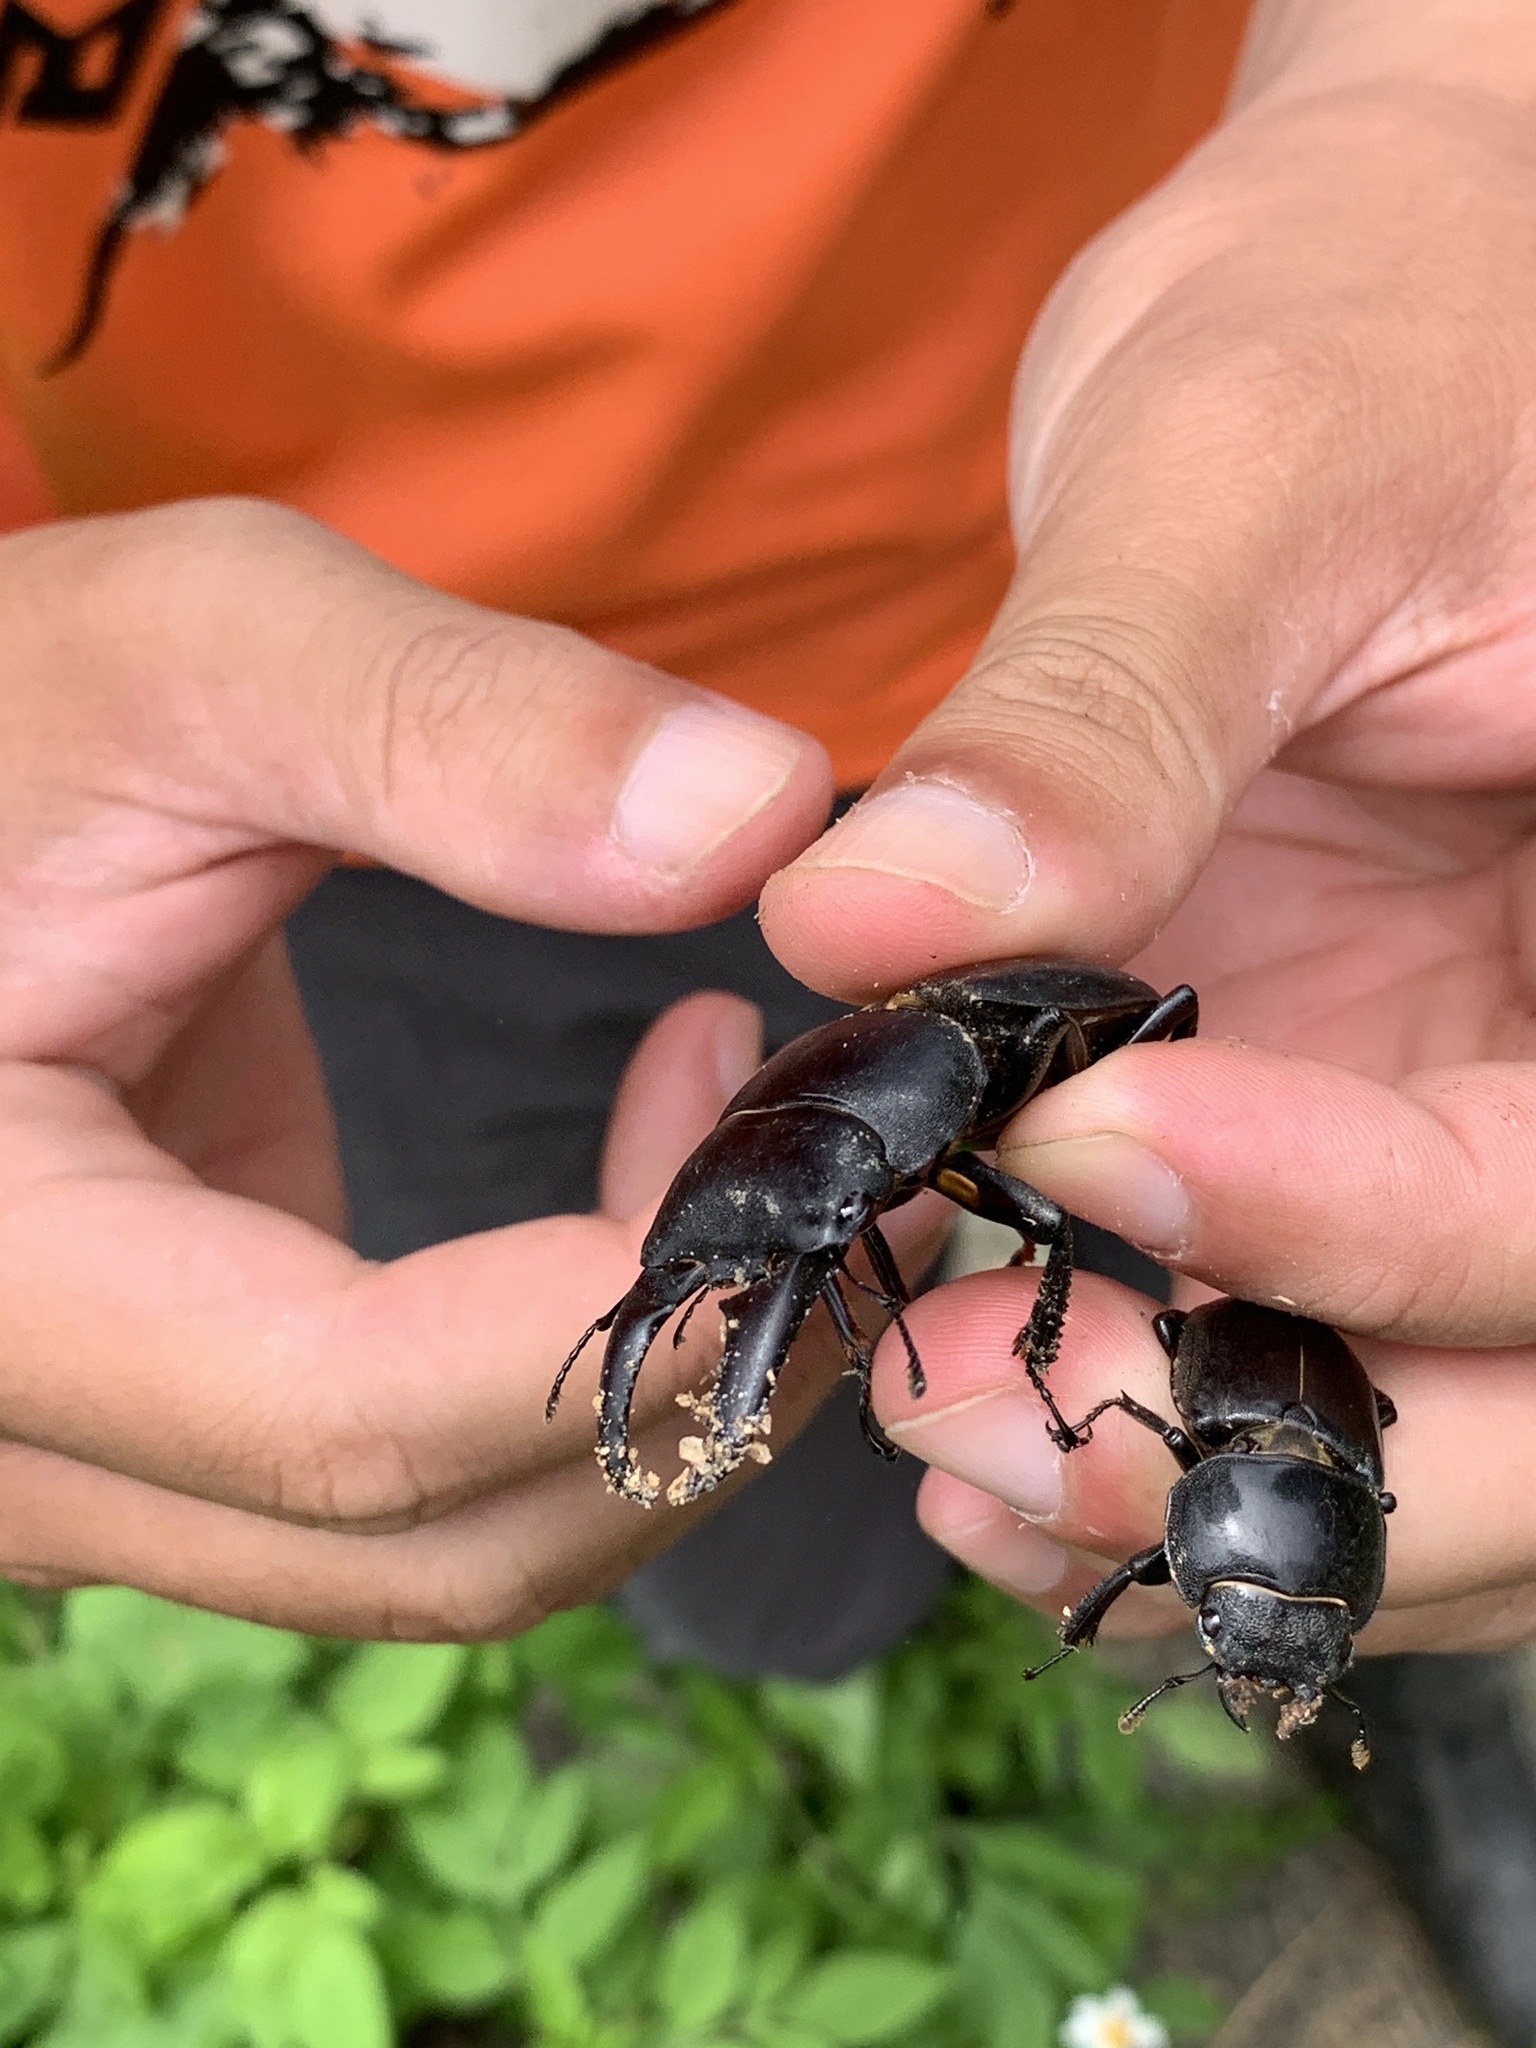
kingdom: Animalia
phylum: Arthropoda
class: Insecta
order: Coleoptera
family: Lucanidae
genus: Serrognathus
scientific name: Serrognathus titanus
